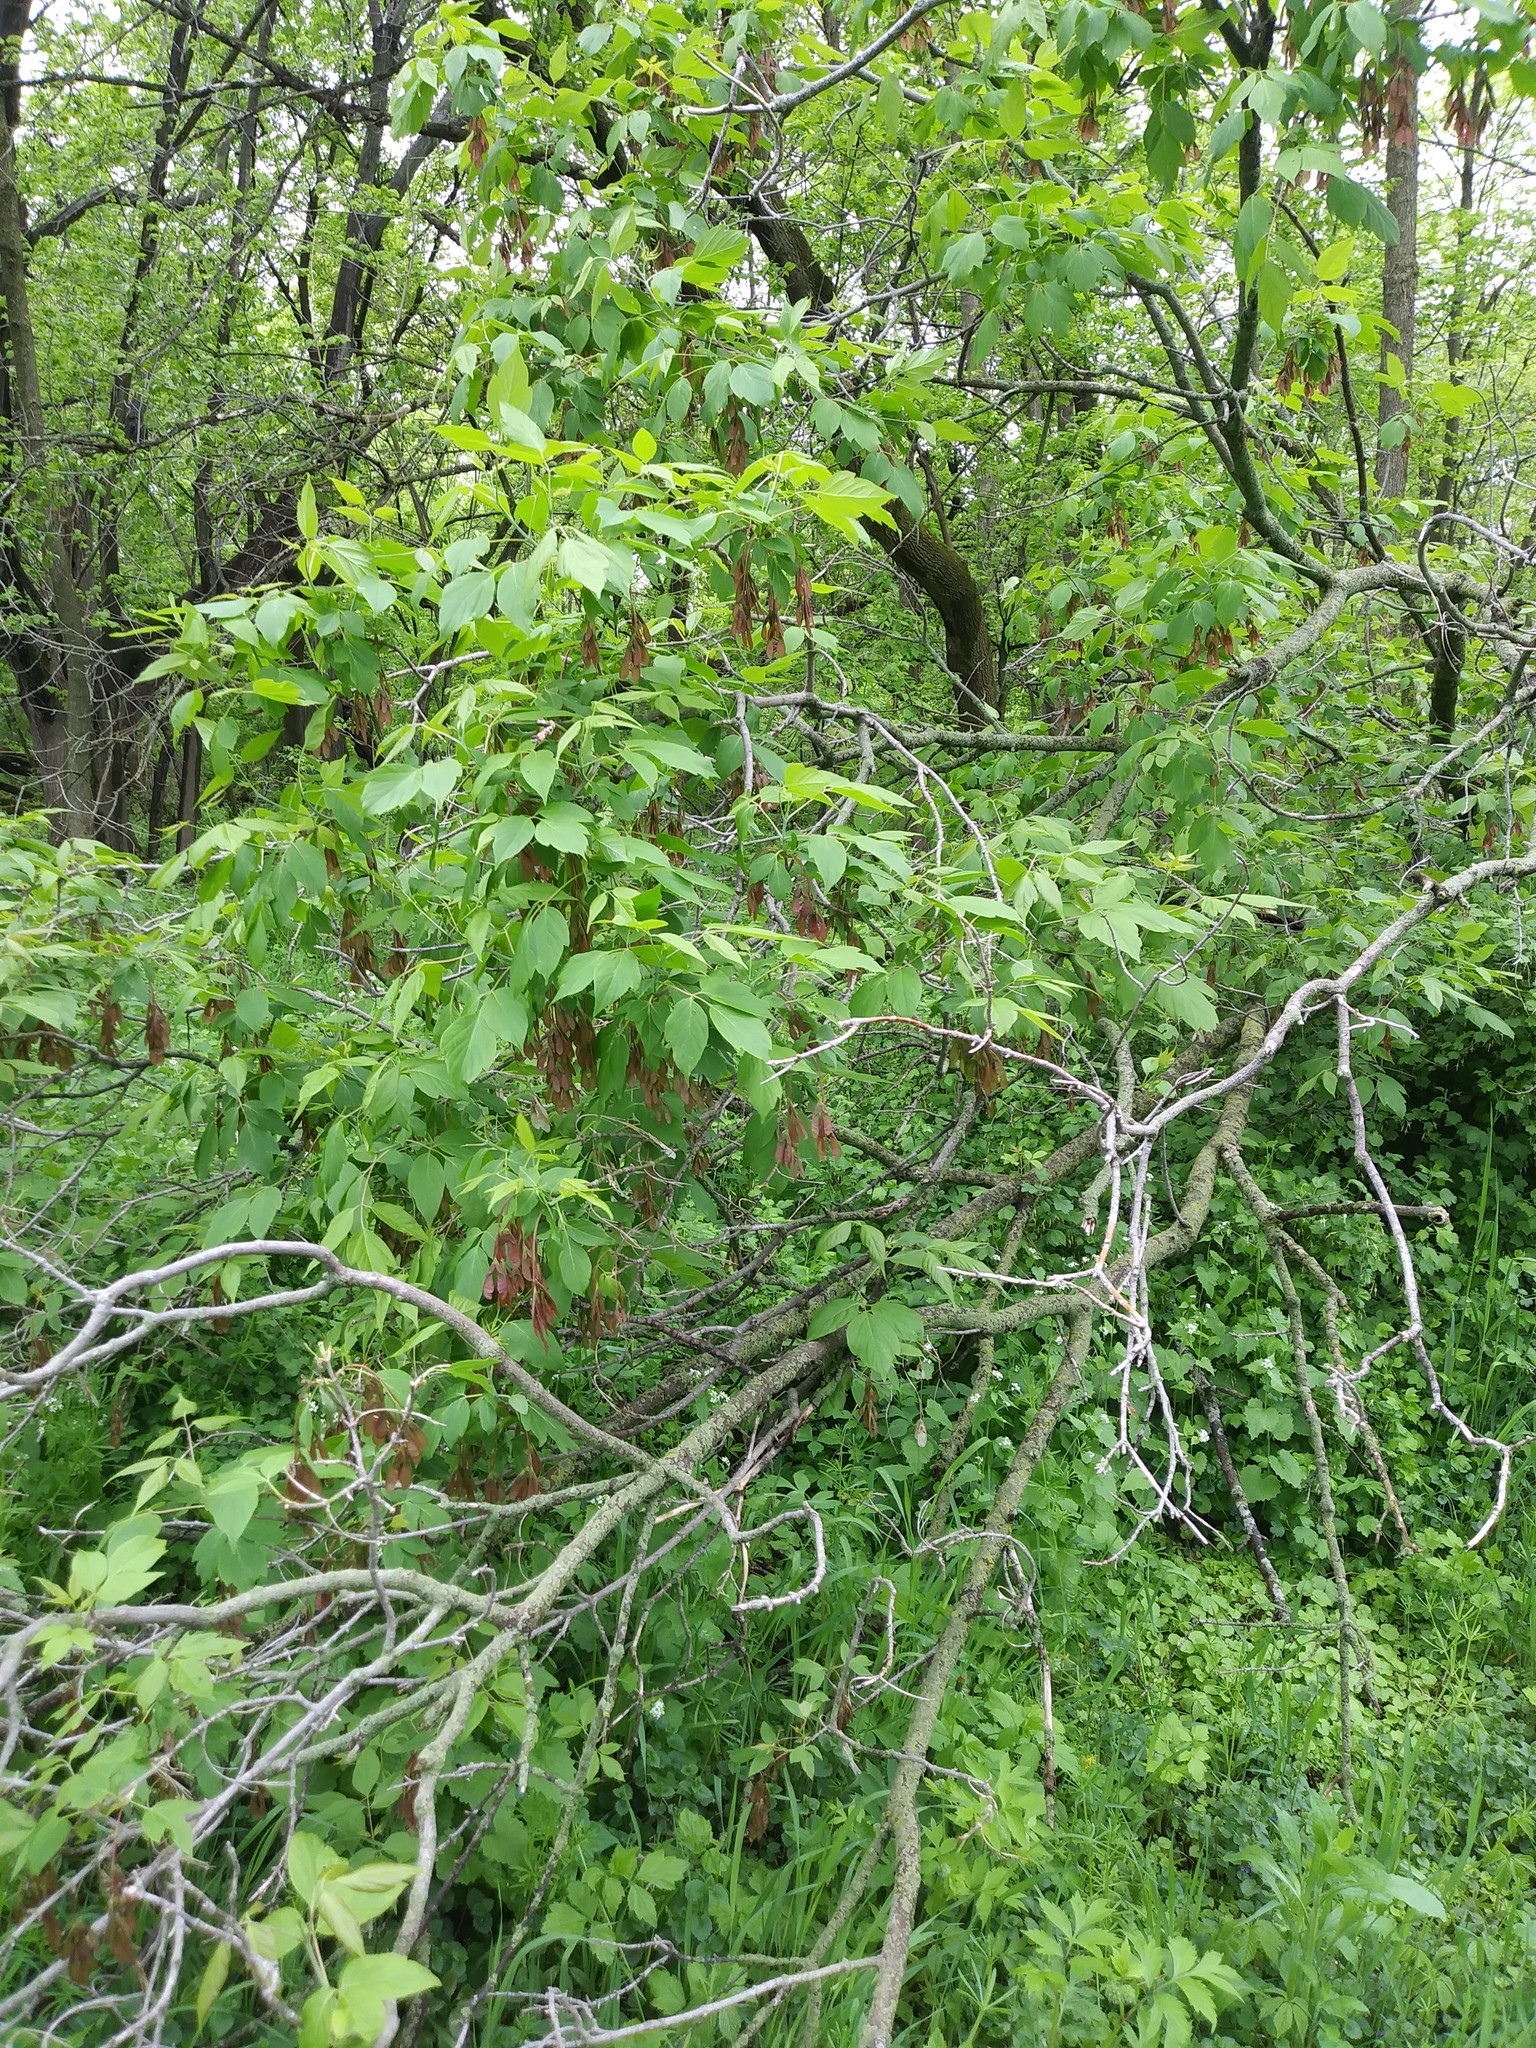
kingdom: Plantae
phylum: Tracheophyta
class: Magnoliopsida
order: Sapindales
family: Sapindaceae
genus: Acer
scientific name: Acer negundo
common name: Ashleaf maple
